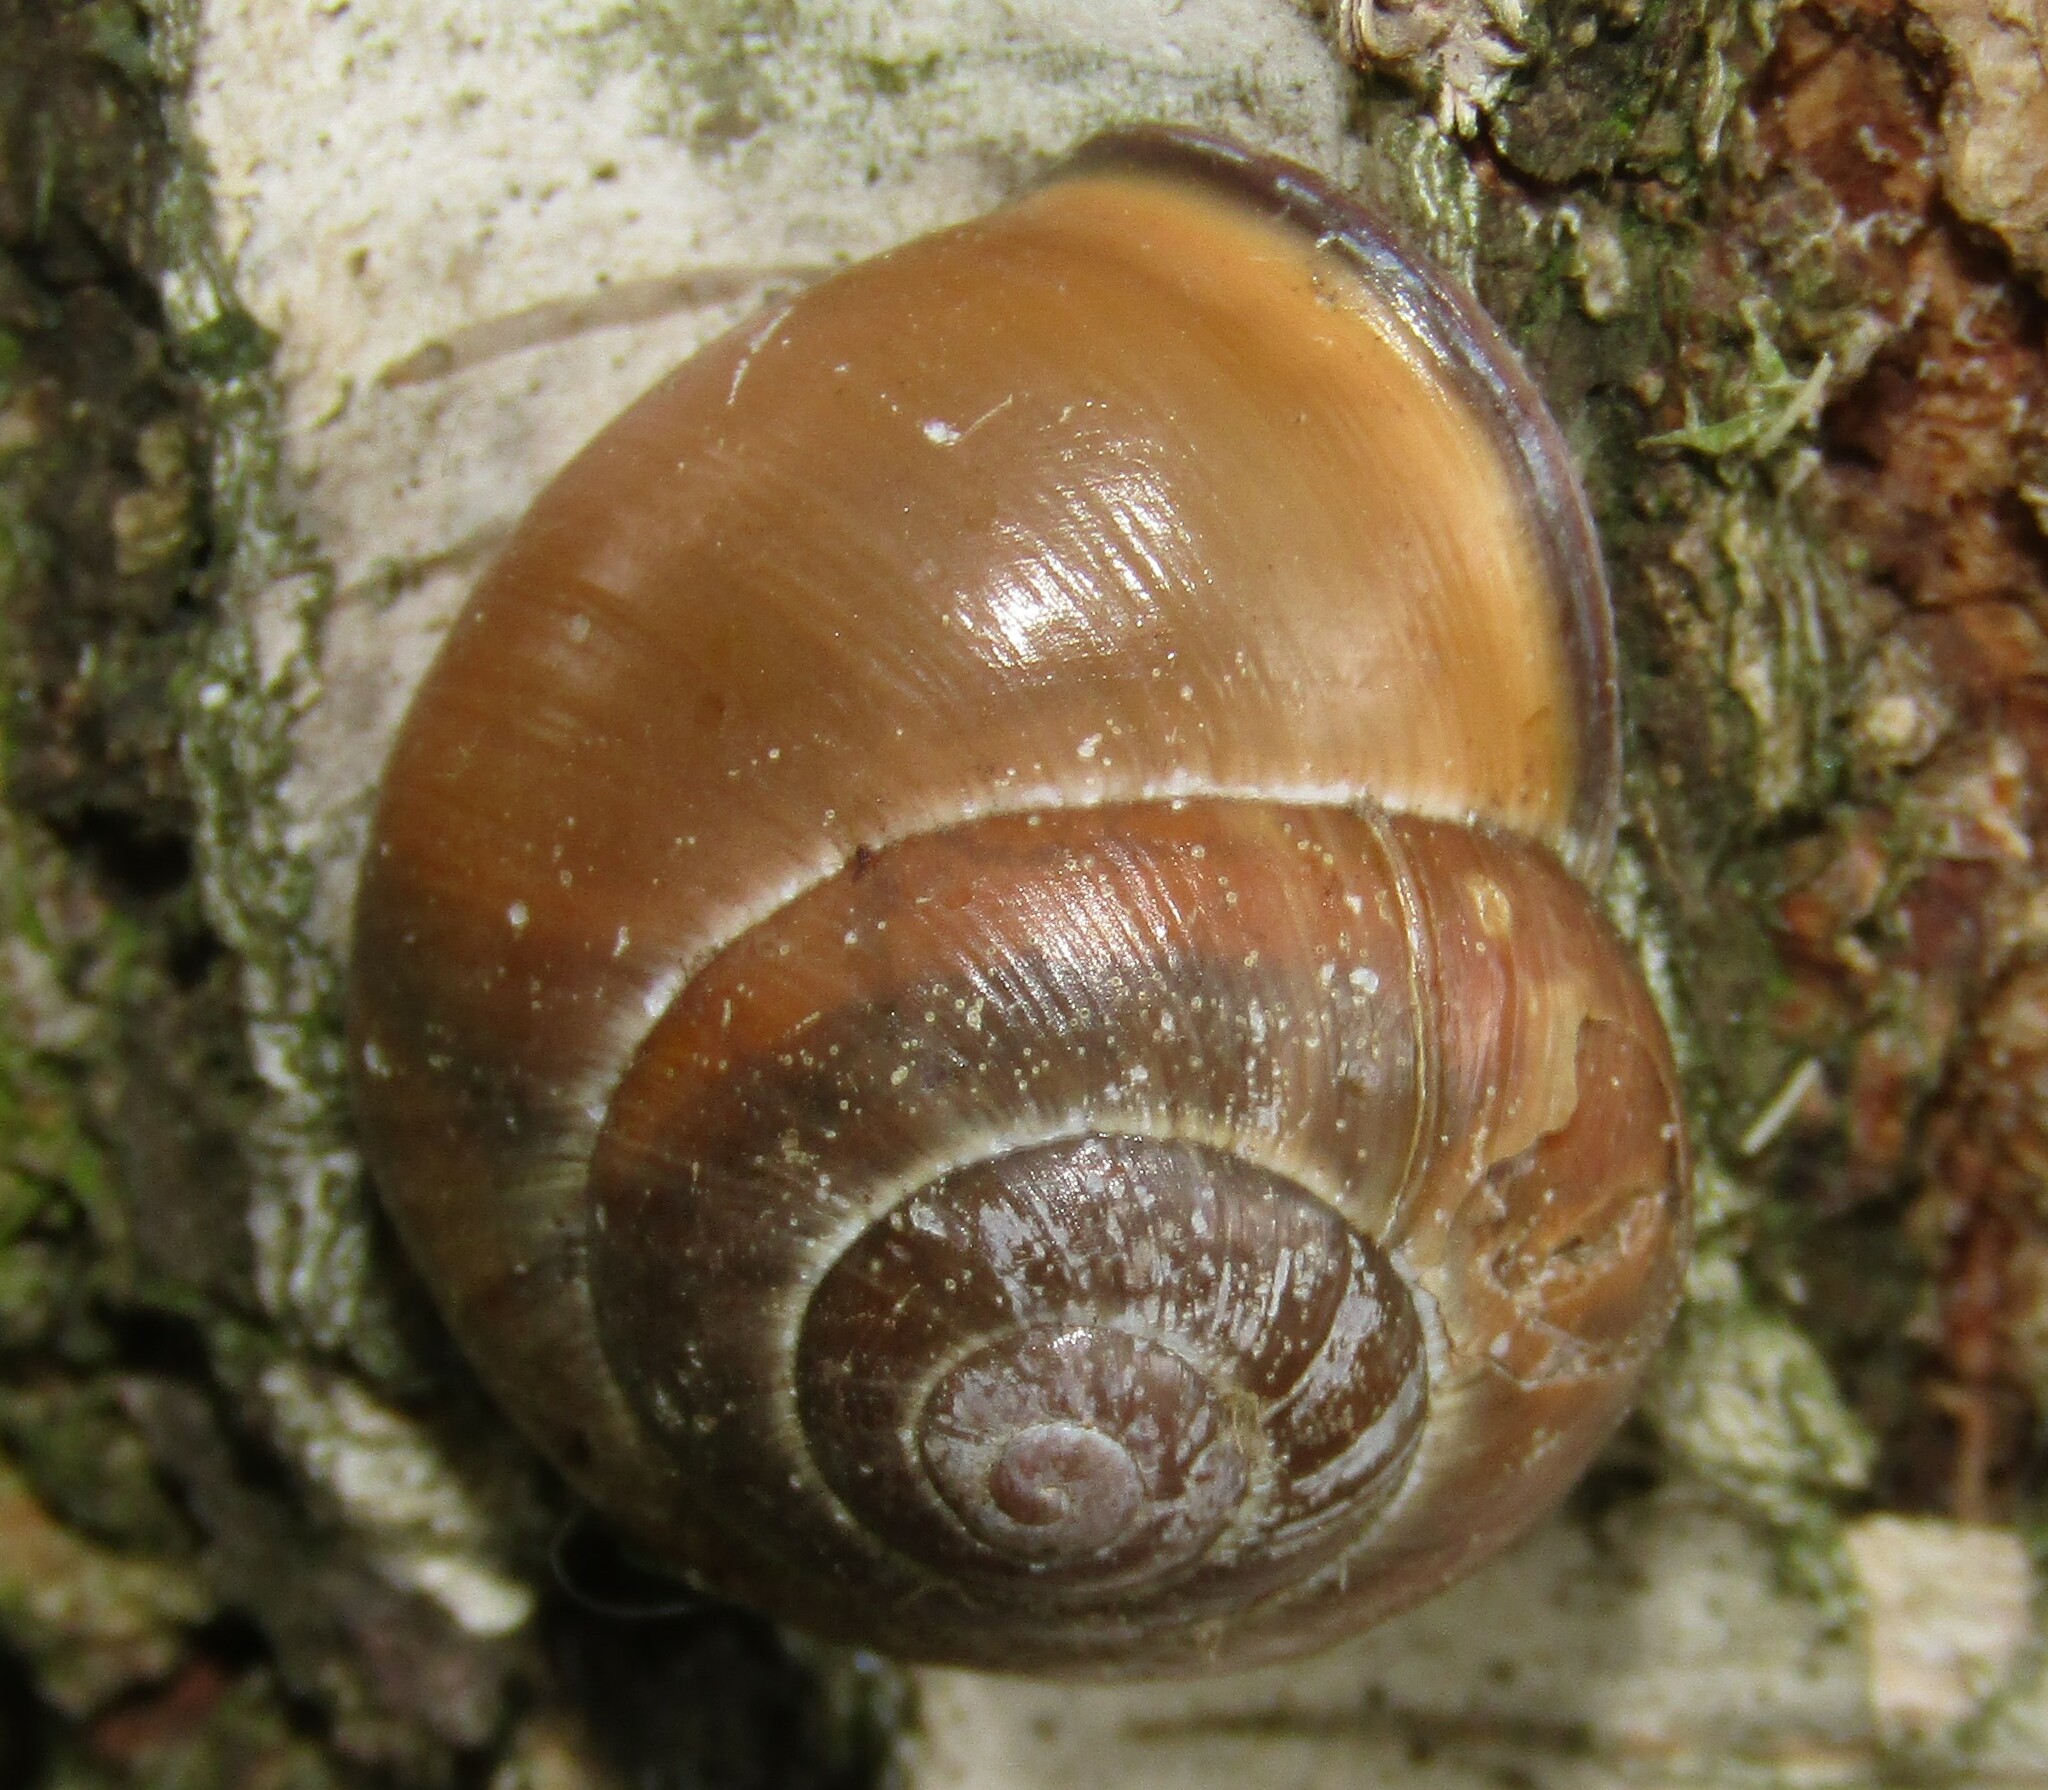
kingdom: Animalia
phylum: Mollusca
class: Gastropoda
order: Stylommatophora
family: Helicidae
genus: Cepaea
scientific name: Cepaea nemoralis
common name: Grovesnail
